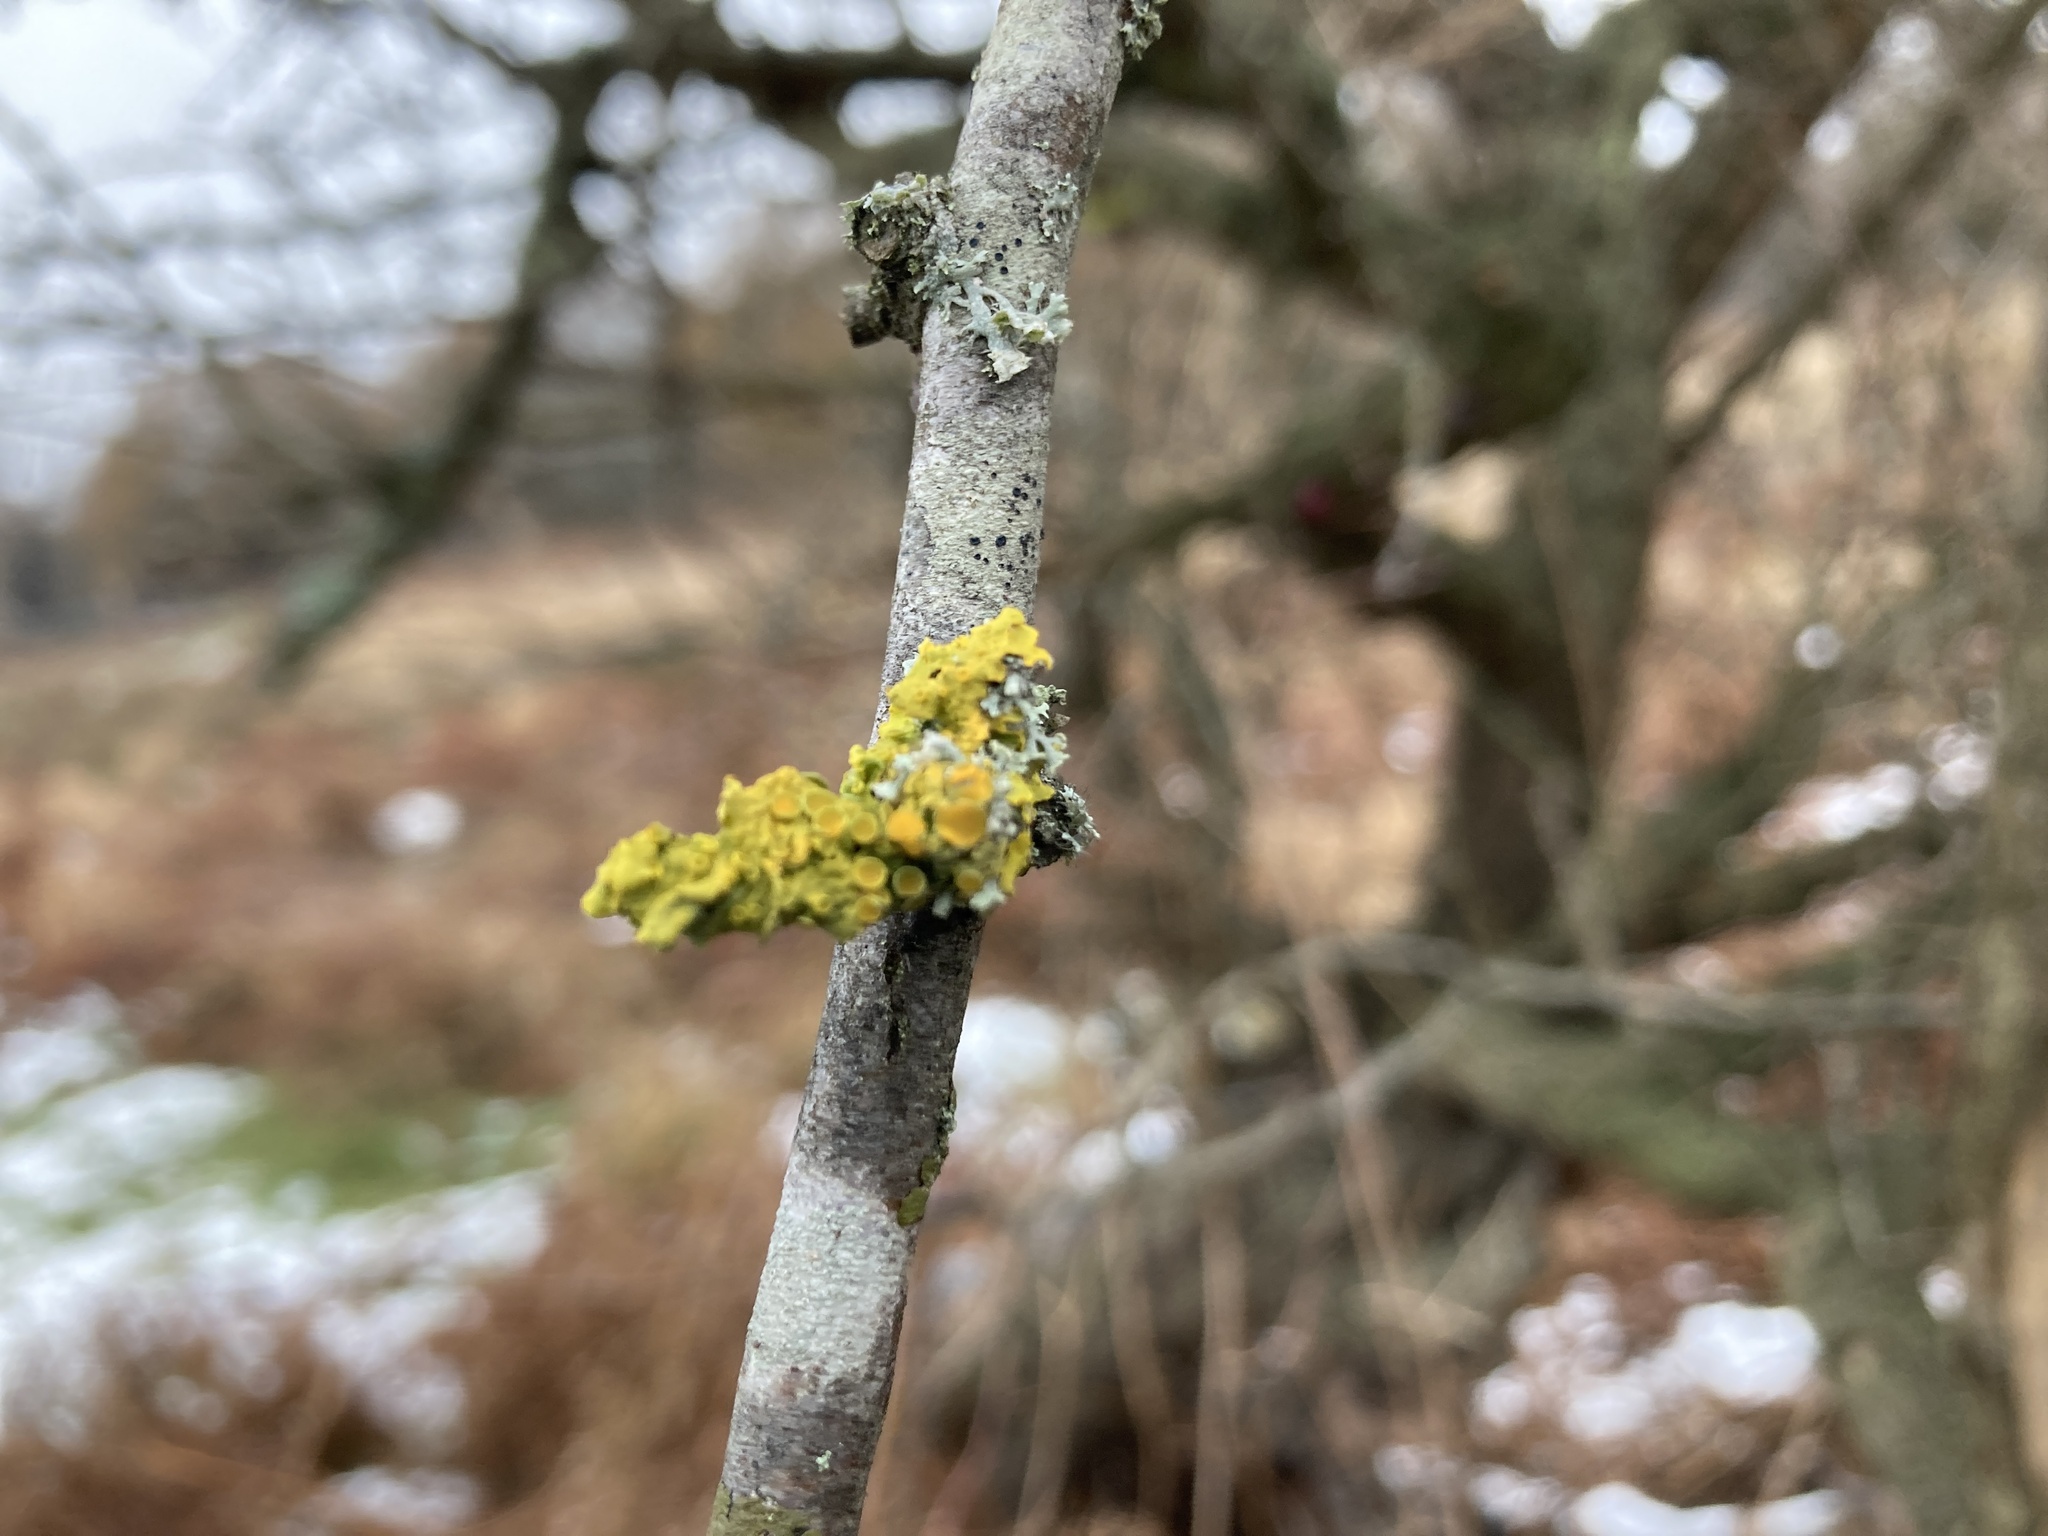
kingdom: Fungi
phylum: Ascomycota
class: Lecanoromycetes
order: Teloschistales
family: Teloschistaceae
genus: Xanthoria
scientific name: Xanthoria parietina
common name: Common orange lichen
